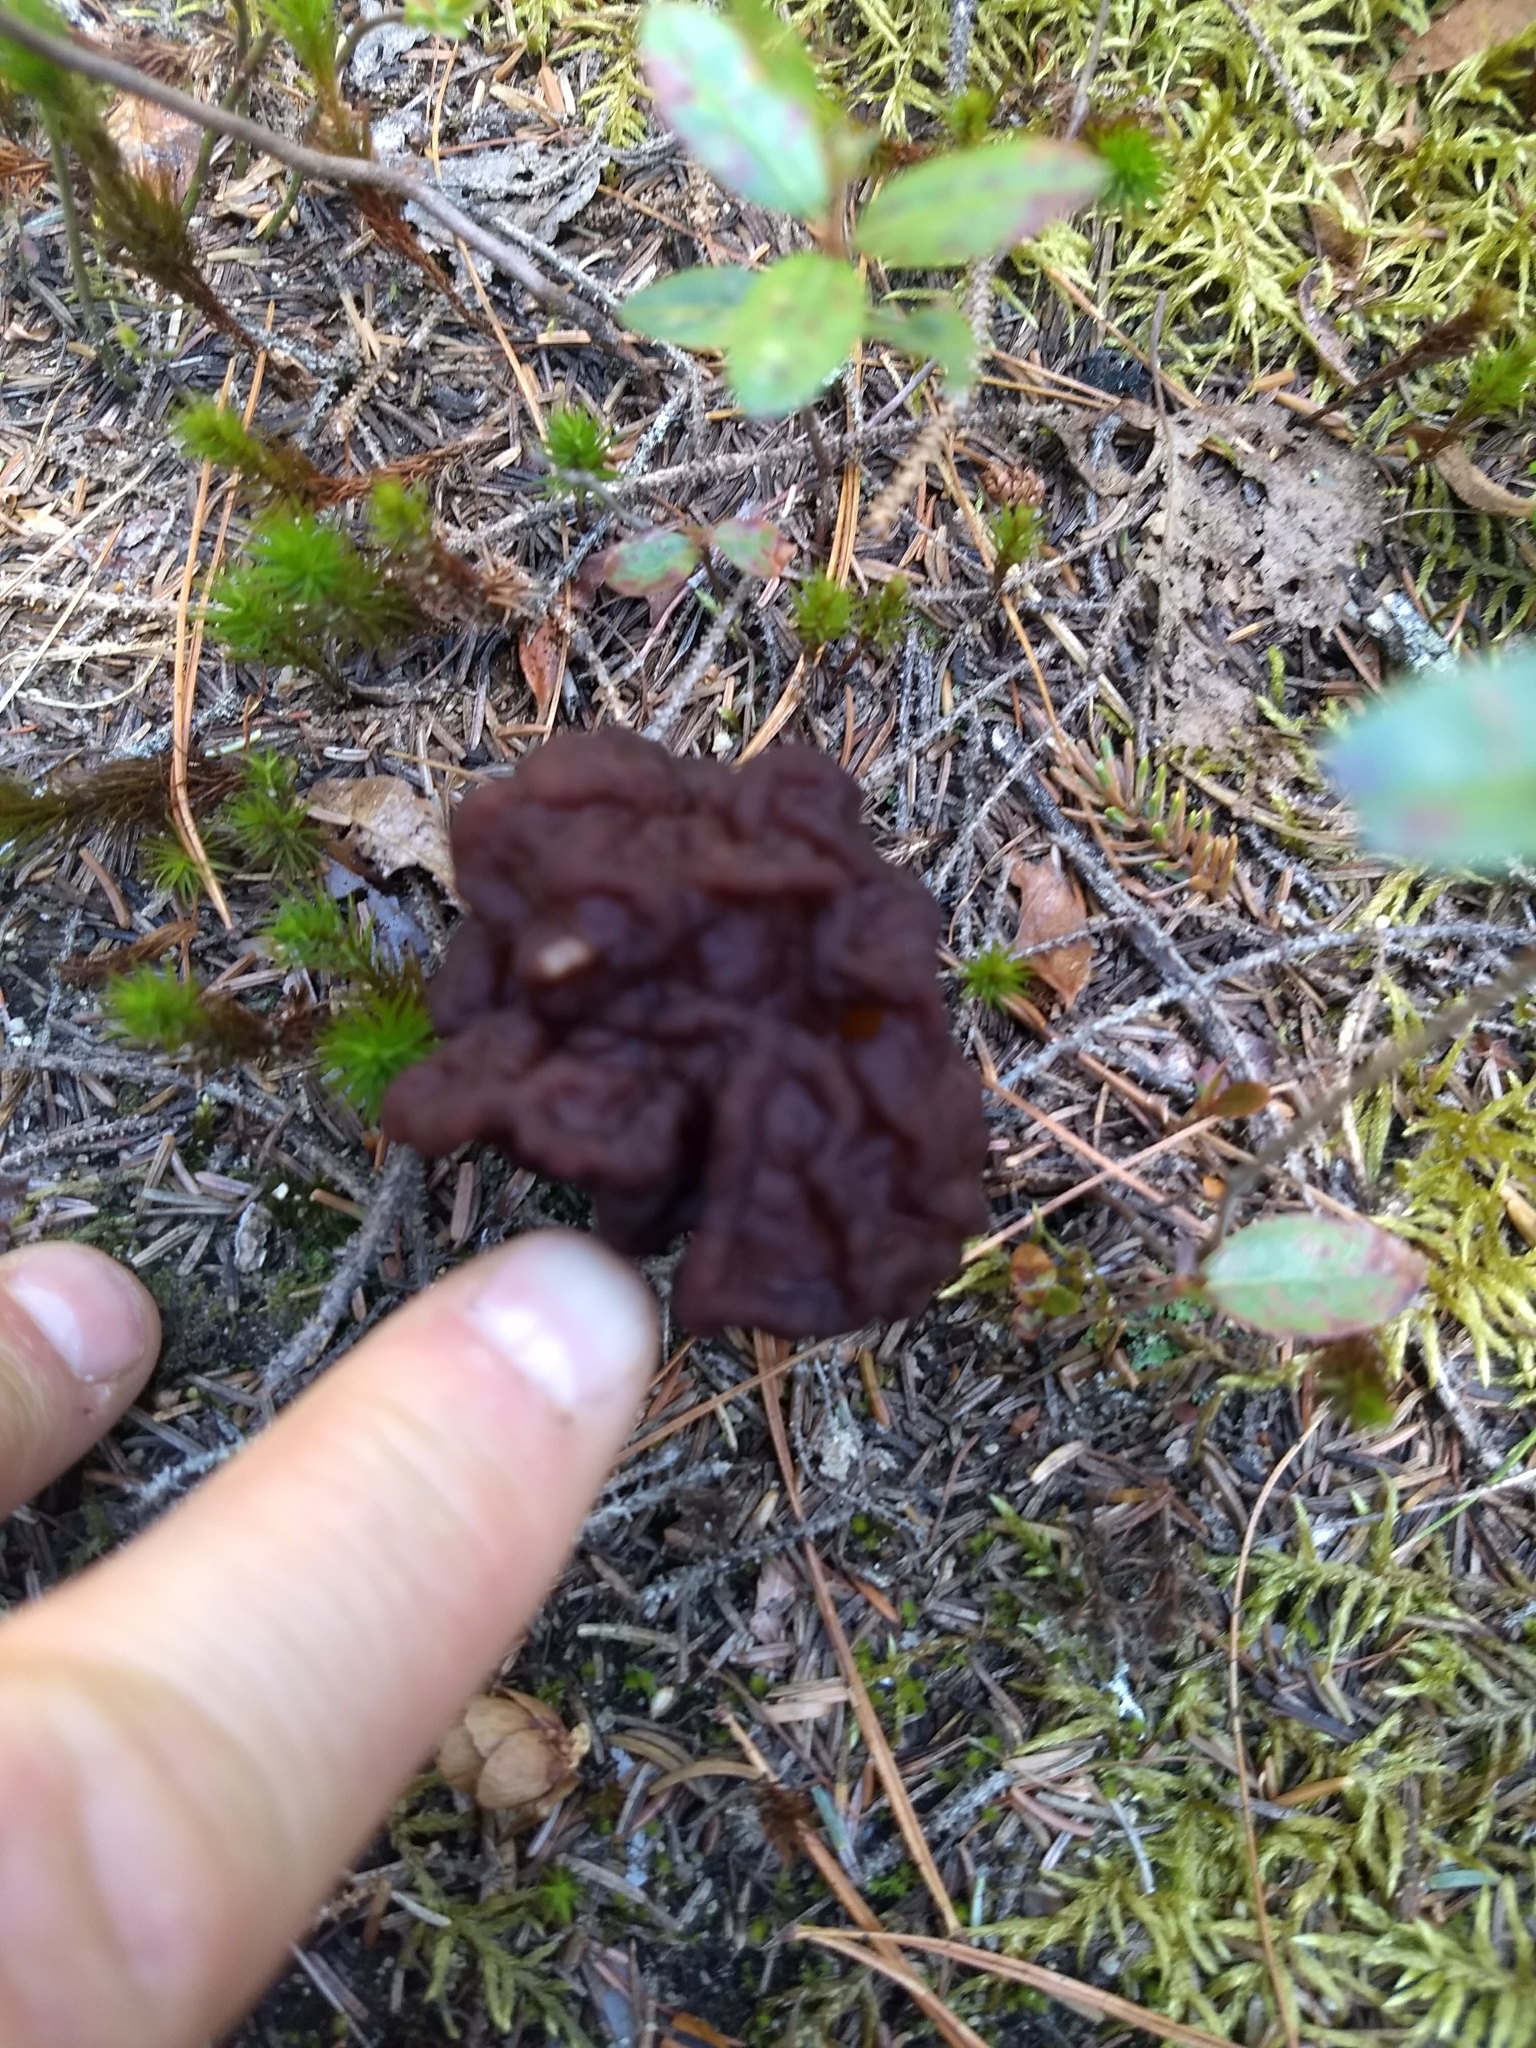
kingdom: Fungi
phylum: Ascomycota
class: Pezizomycetes
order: Pezizales
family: Discinaceae
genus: Gyromitra
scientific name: Gyromitra esculenta
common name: False morel
